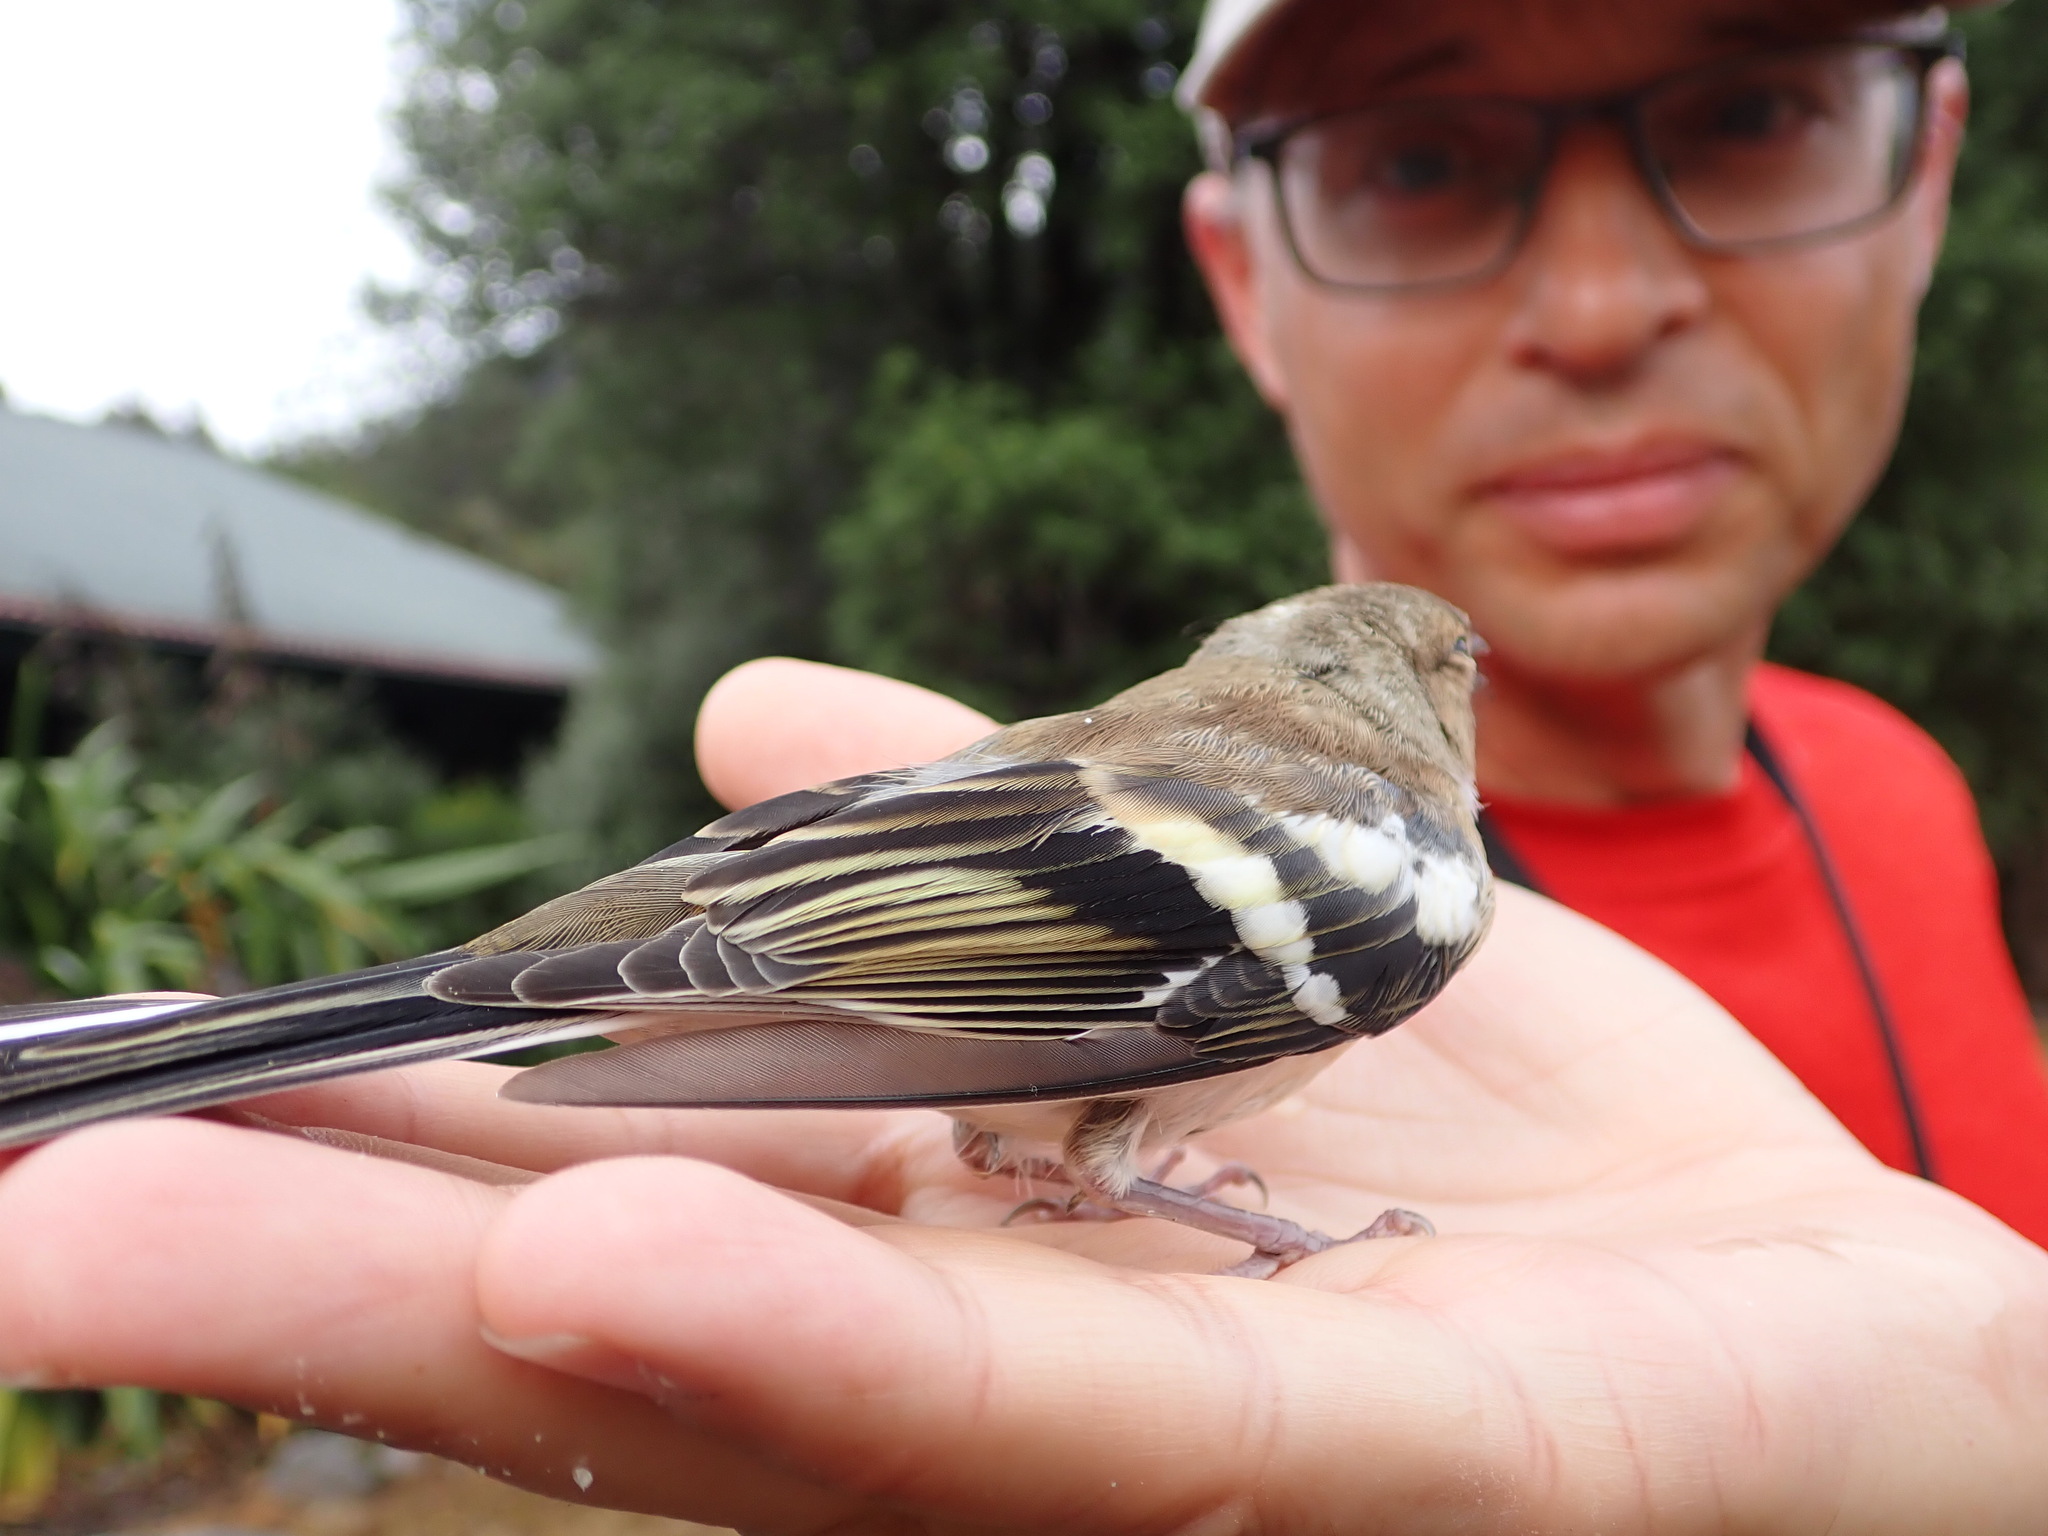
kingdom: Animalia
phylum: Chordata
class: Aves
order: Passeriformes
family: Fringillidae
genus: Fringilla
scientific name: Fringilla coelebs
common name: Common chaffinch
